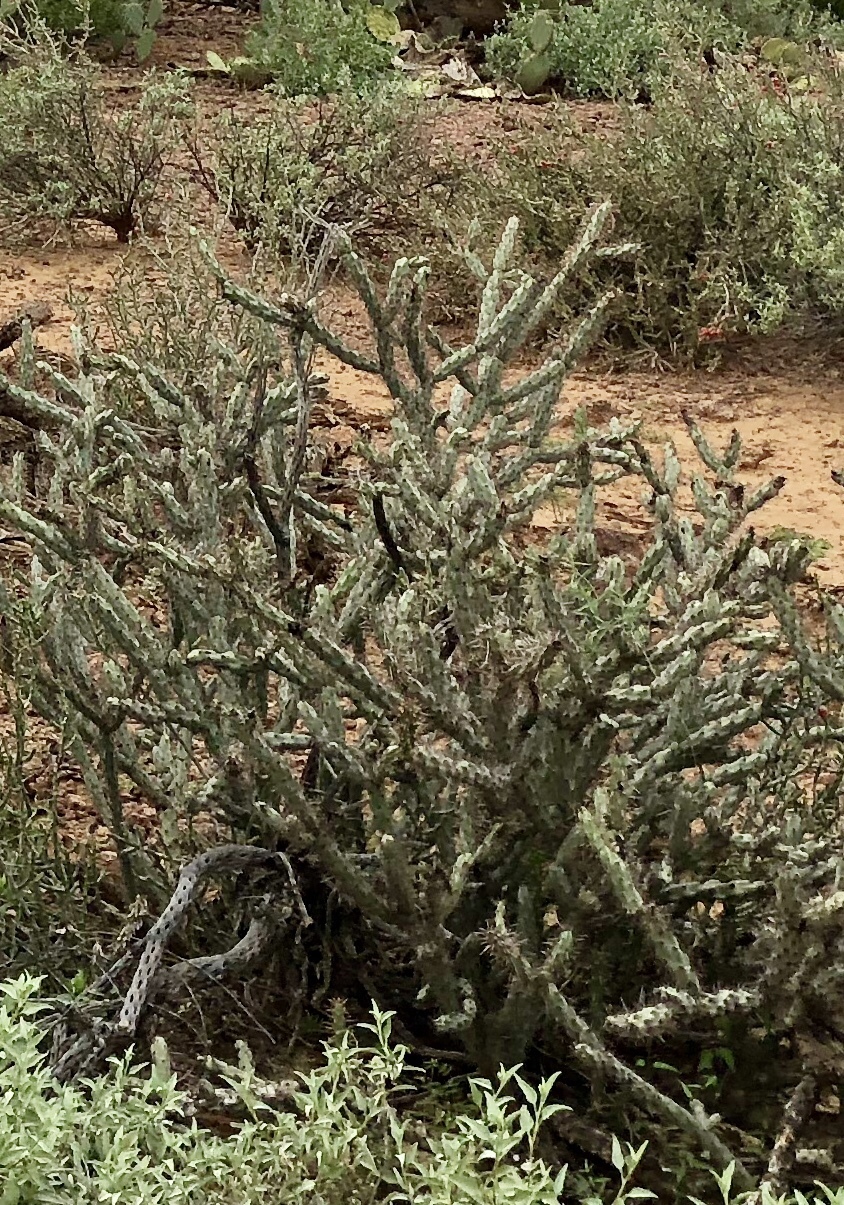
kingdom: Plantae
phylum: Tracheophyta
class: Magnoliopsida
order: Caryophyllales
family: Cactaceae
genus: Cylindropuntia
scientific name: Cylindropuntia acanthocarpa
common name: Buckhorn cholla
